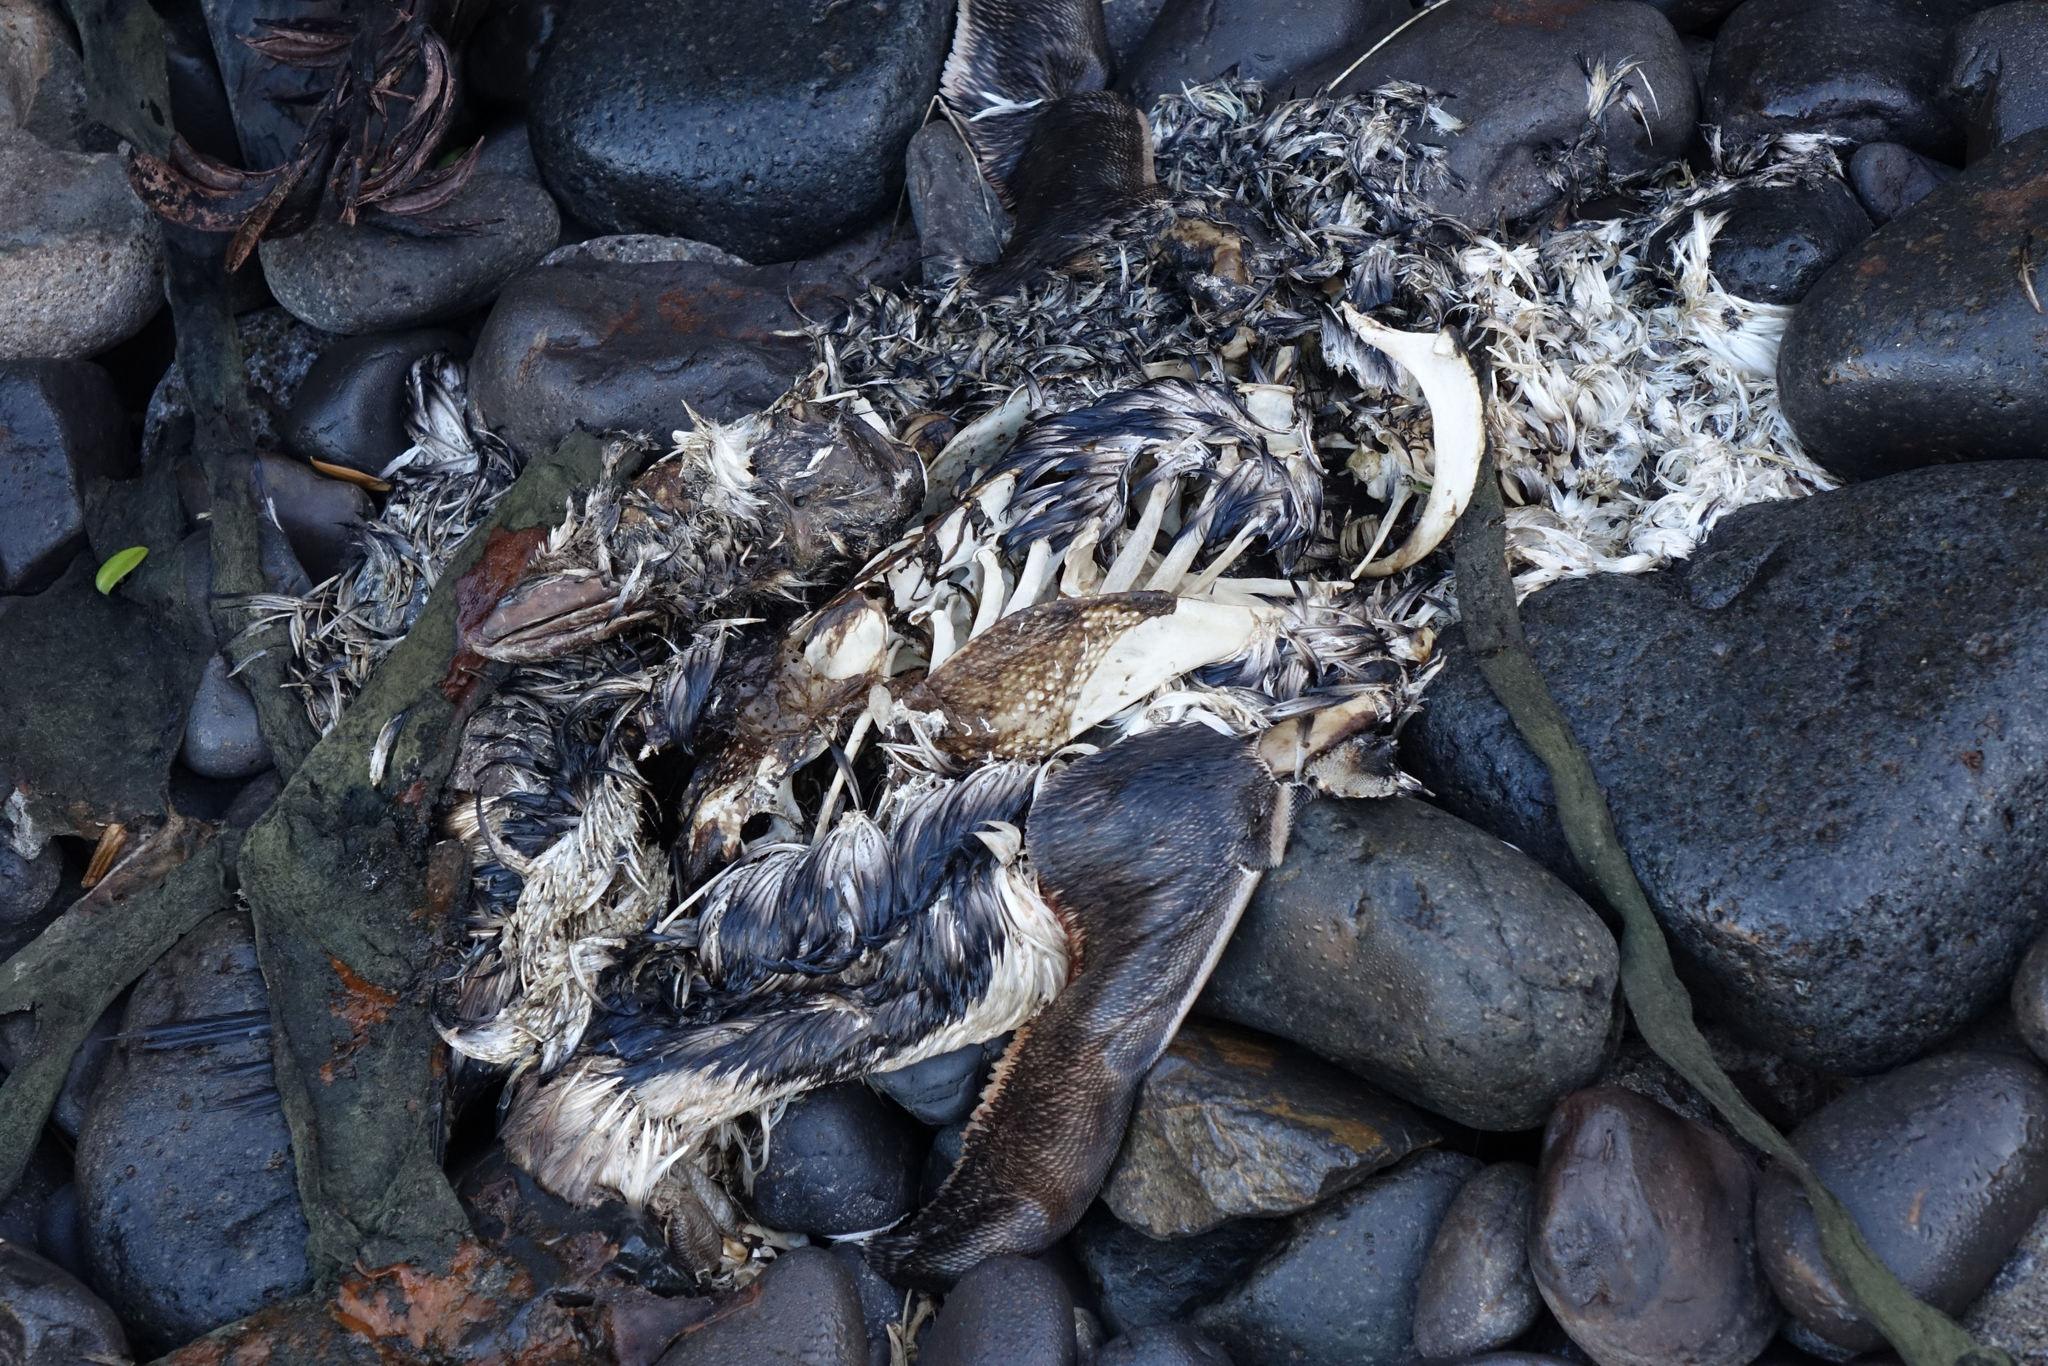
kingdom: Animalia
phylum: Chordata
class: Aves
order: Sphenisciformes
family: Spheniscidae
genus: Eudyptula
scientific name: Eudyptula minor
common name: Little penguin
